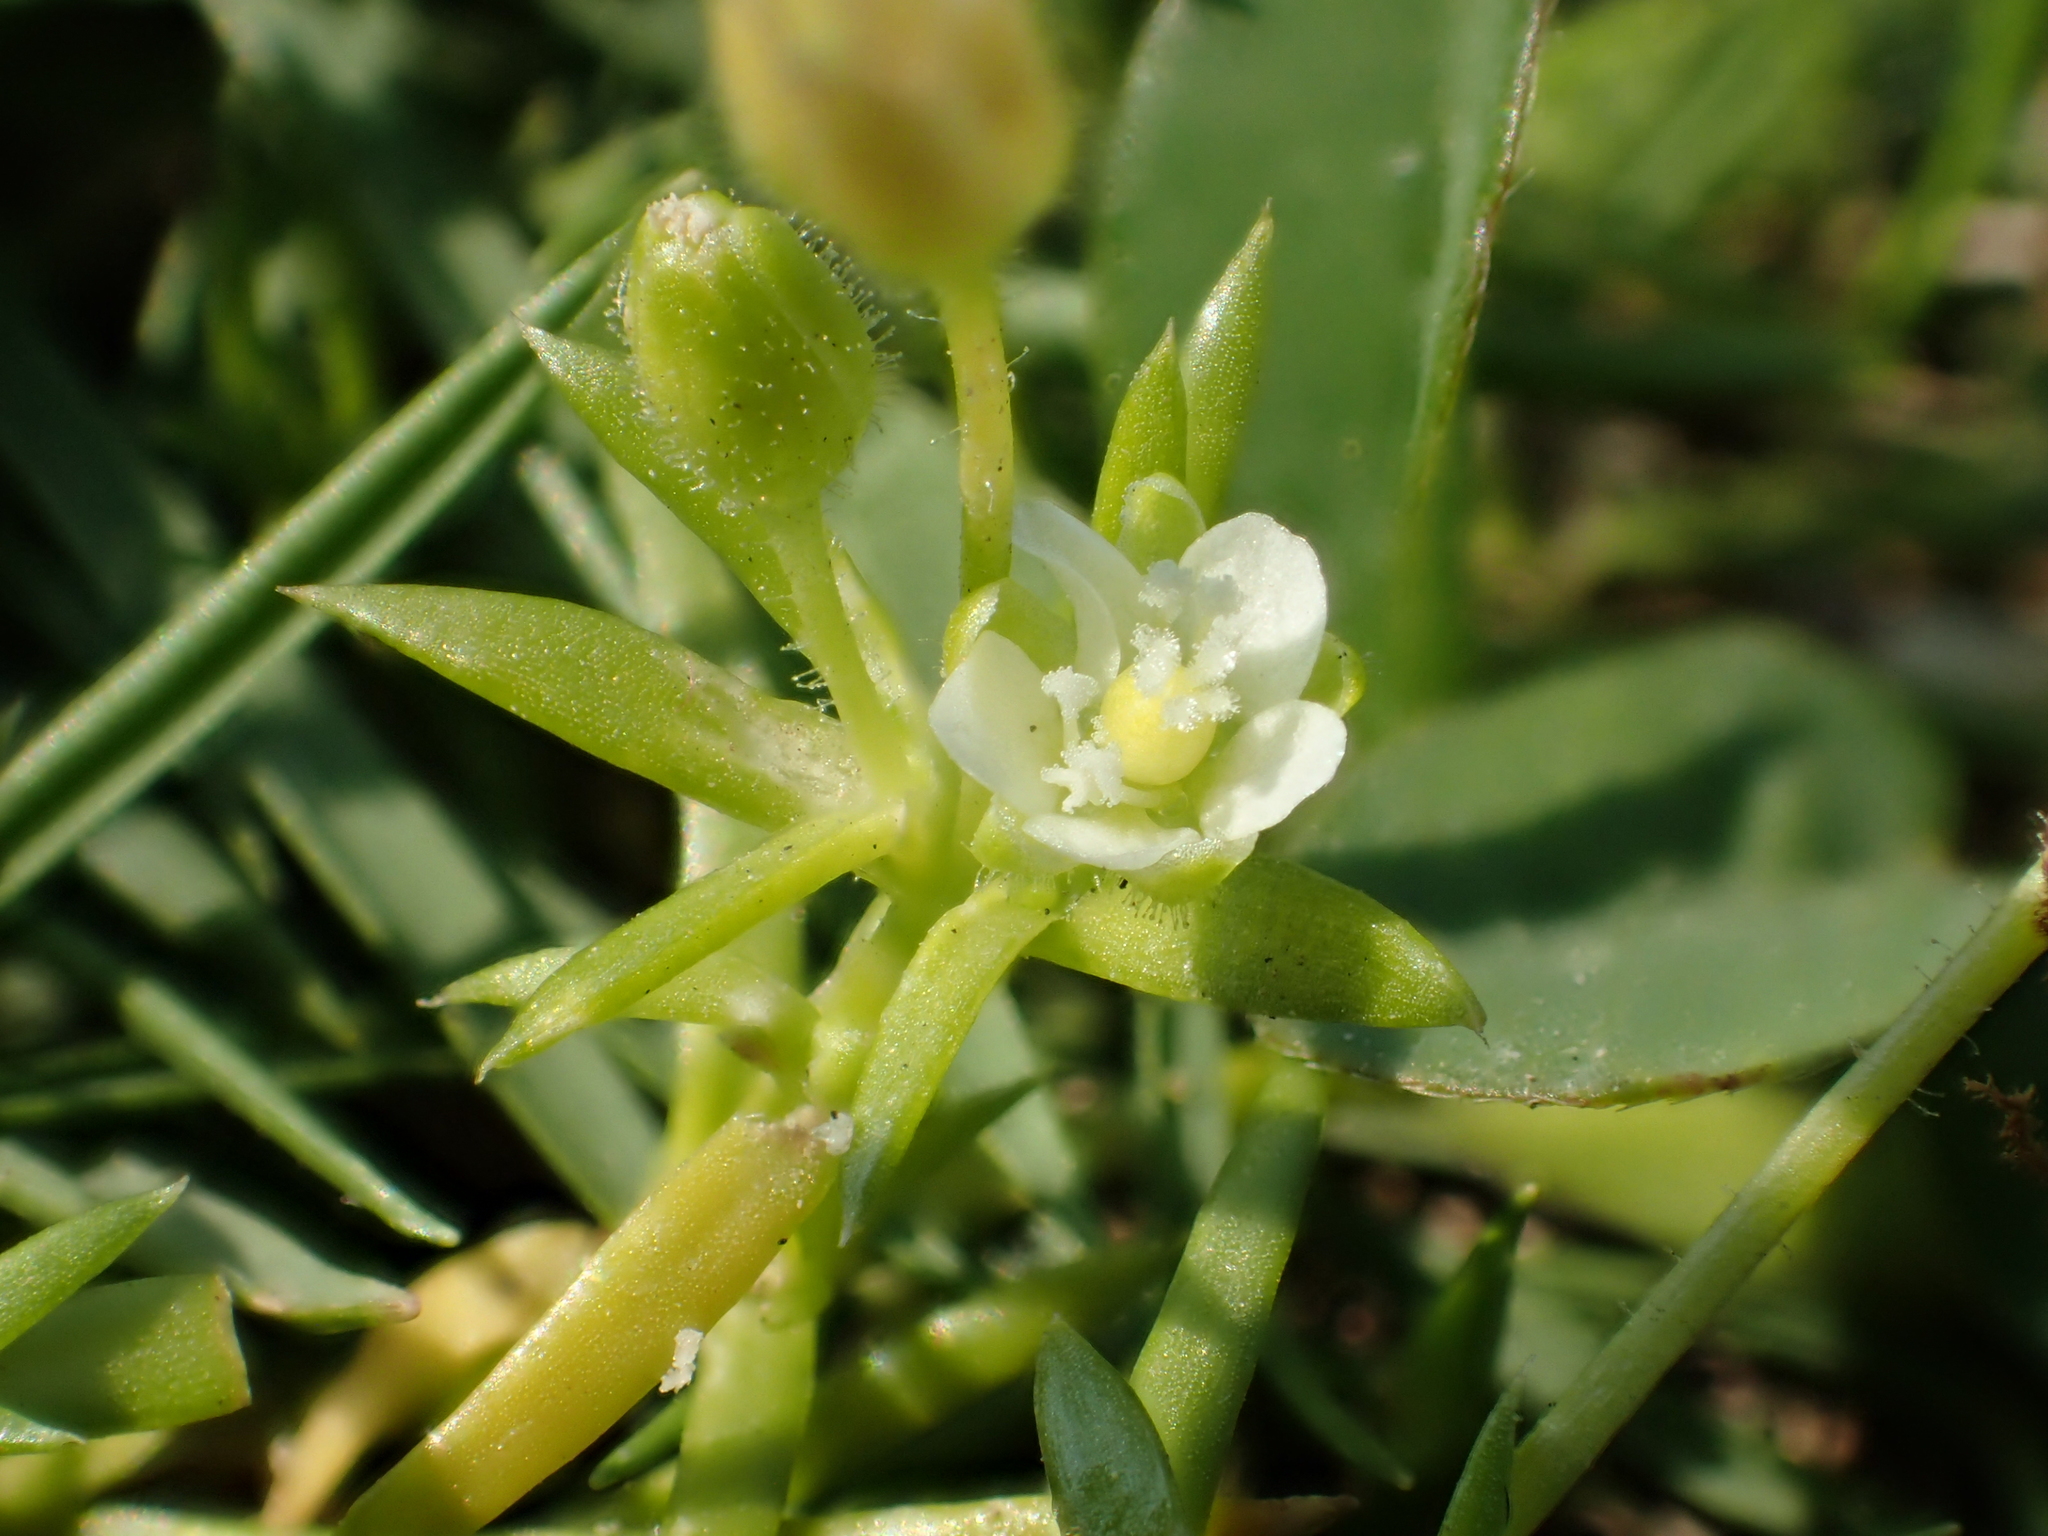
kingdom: Plantae
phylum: Tracheophyta
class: Magnoliopsida
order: Caryophyllales
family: Caryophyllaceae
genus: Sagina
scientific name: Sagina japonica
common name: Japanese pearlwort
